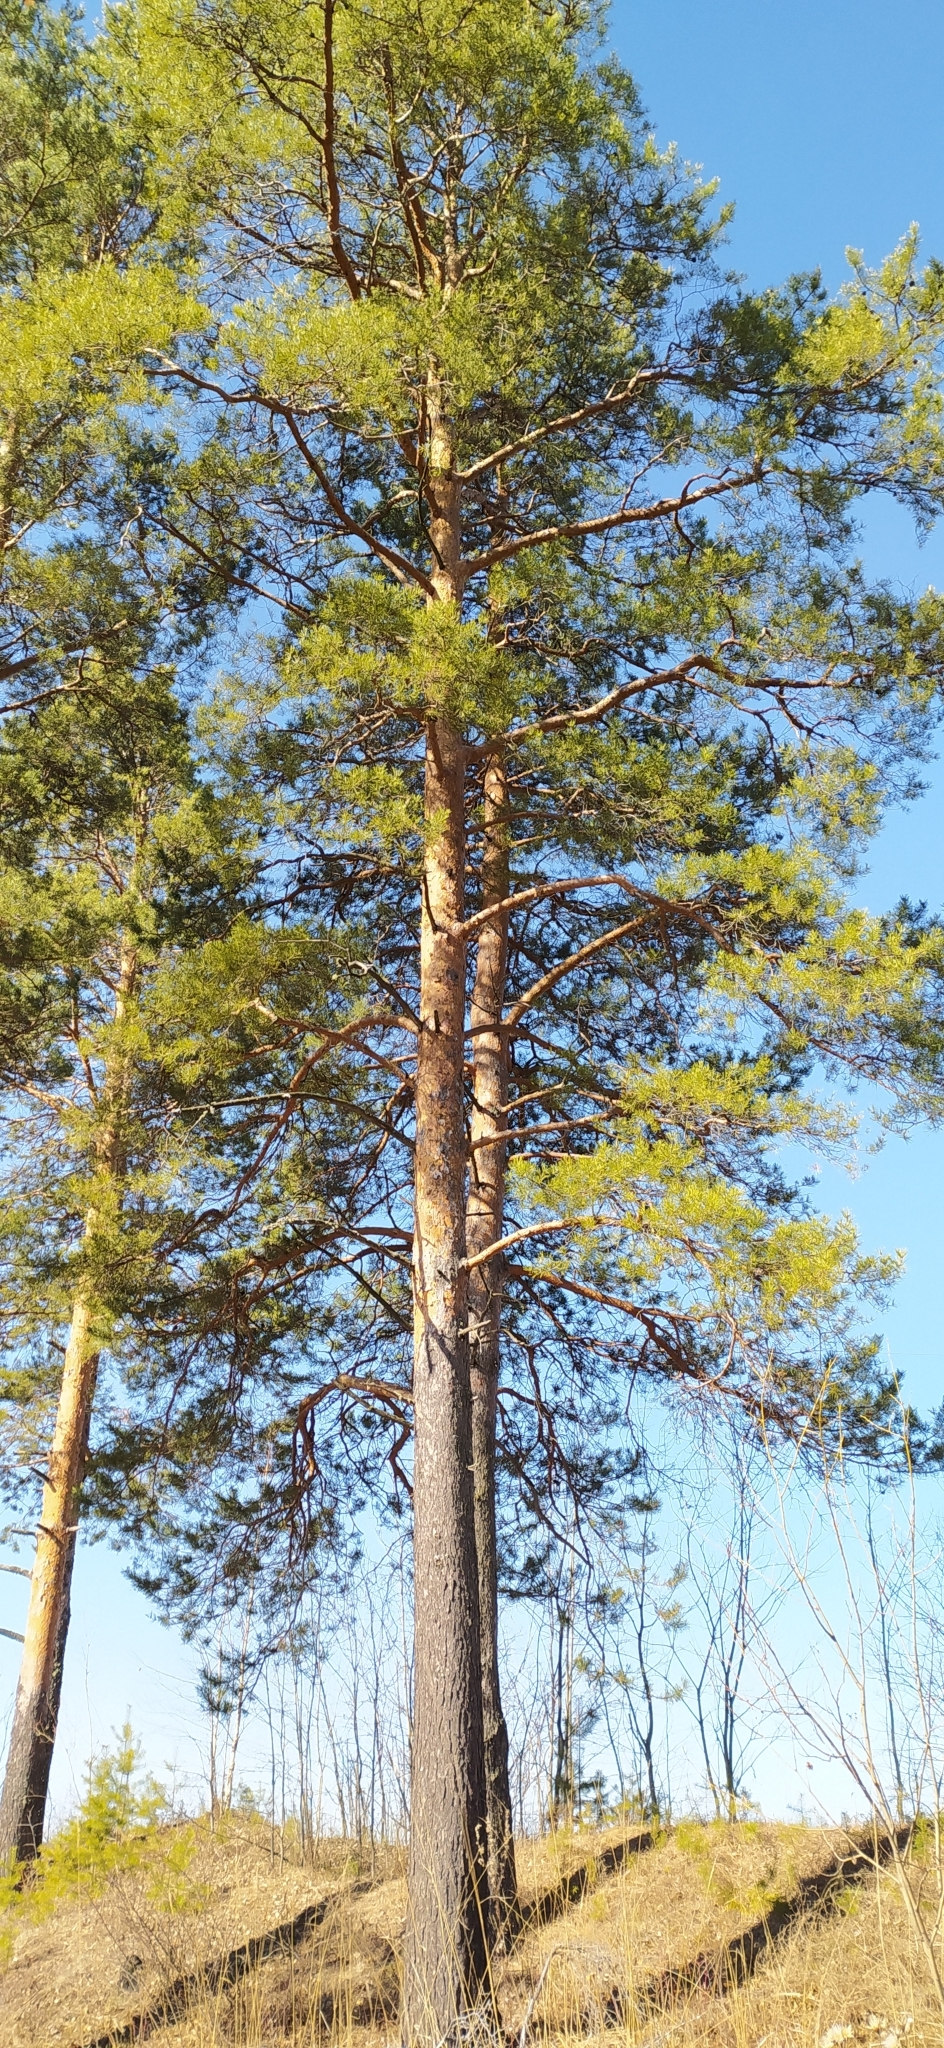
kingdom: Plantae
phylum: Tracheophyta
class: Pinopsida
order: Pinales
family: Pinaceae
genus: Pinus
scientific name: Pinus sylvestris
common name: Scots pine
